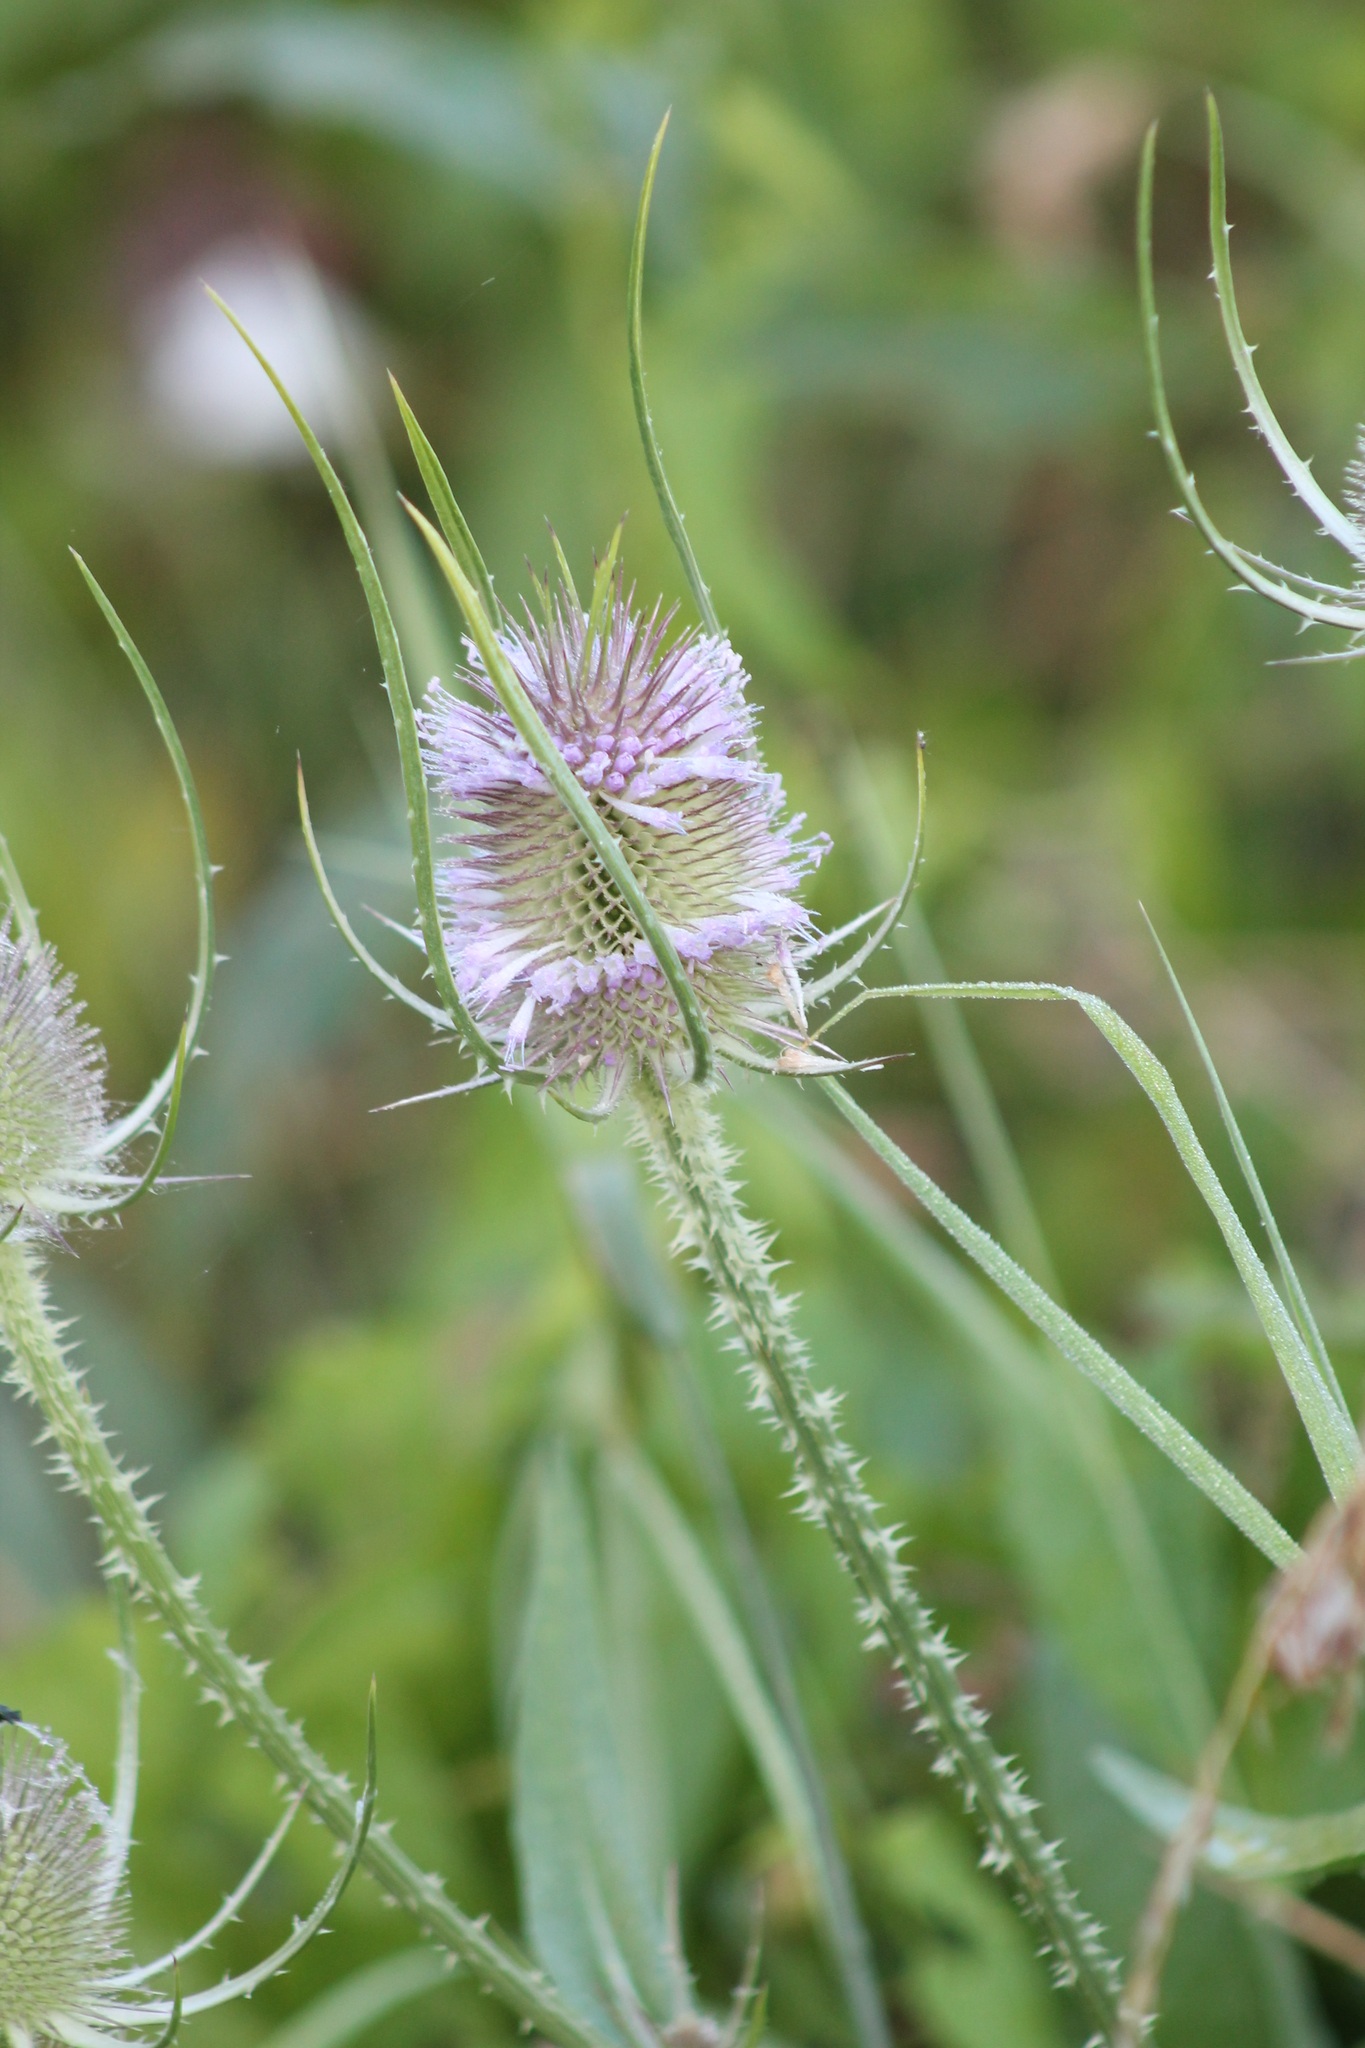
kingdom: Plantae
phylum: Tracheophyta
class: Magnoliopsida
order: Dipsacales
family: Caprifoliaceae
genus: Dipsacus
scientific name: Dipsacus fullonum
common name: Teasel
